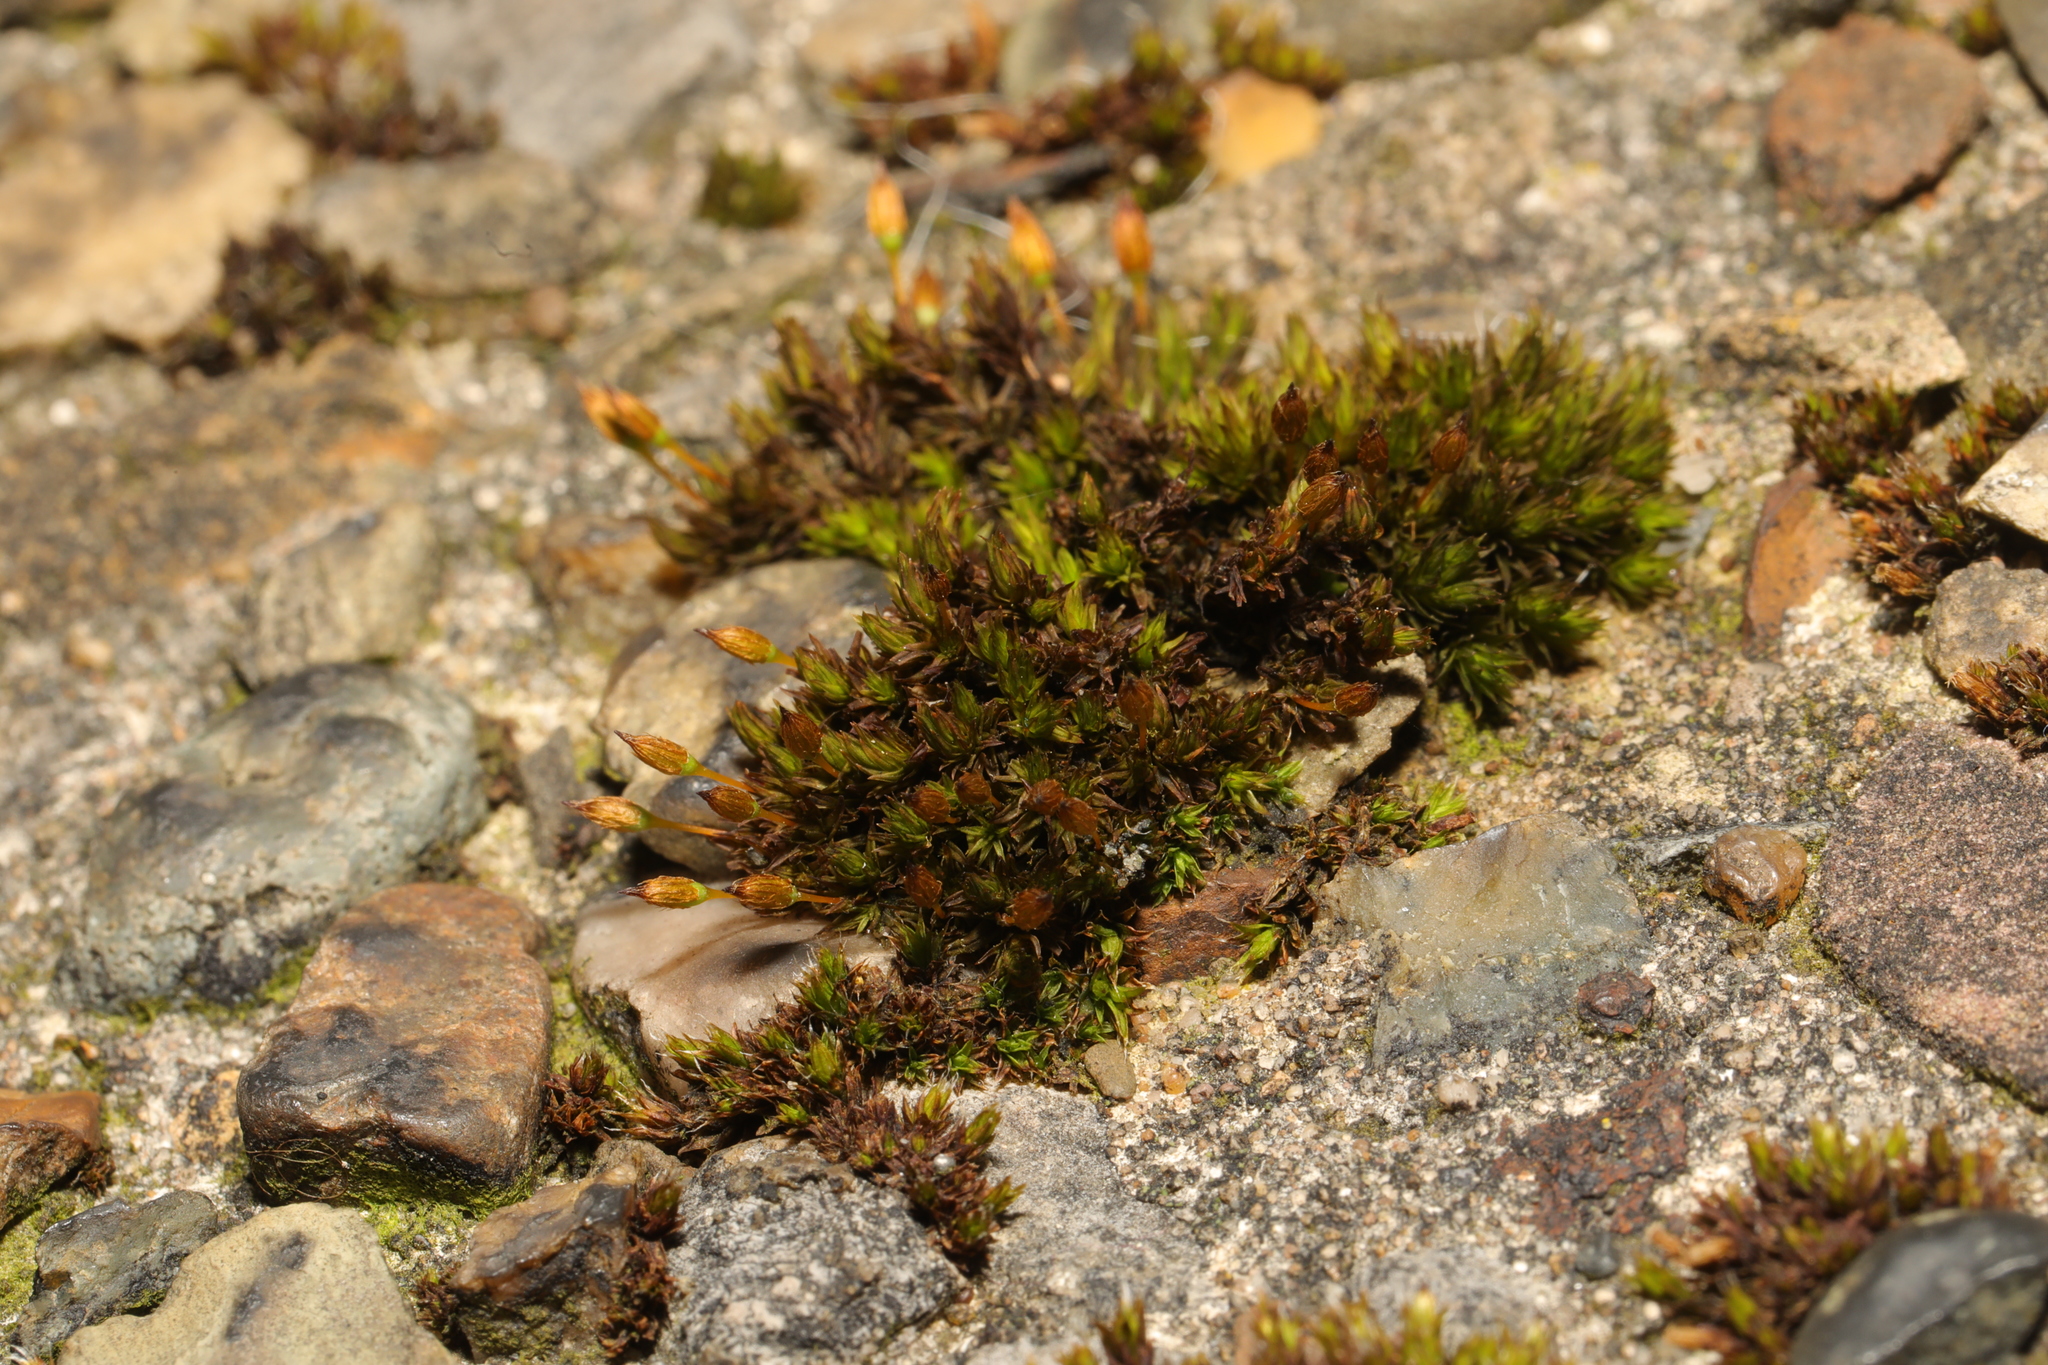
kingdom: Plantae
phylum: Bryophyta
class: Bryopsida
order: Orthotrichales
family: Orthotrichaceae
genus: Orthotrichum
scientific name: Orthotrichum anomalum
